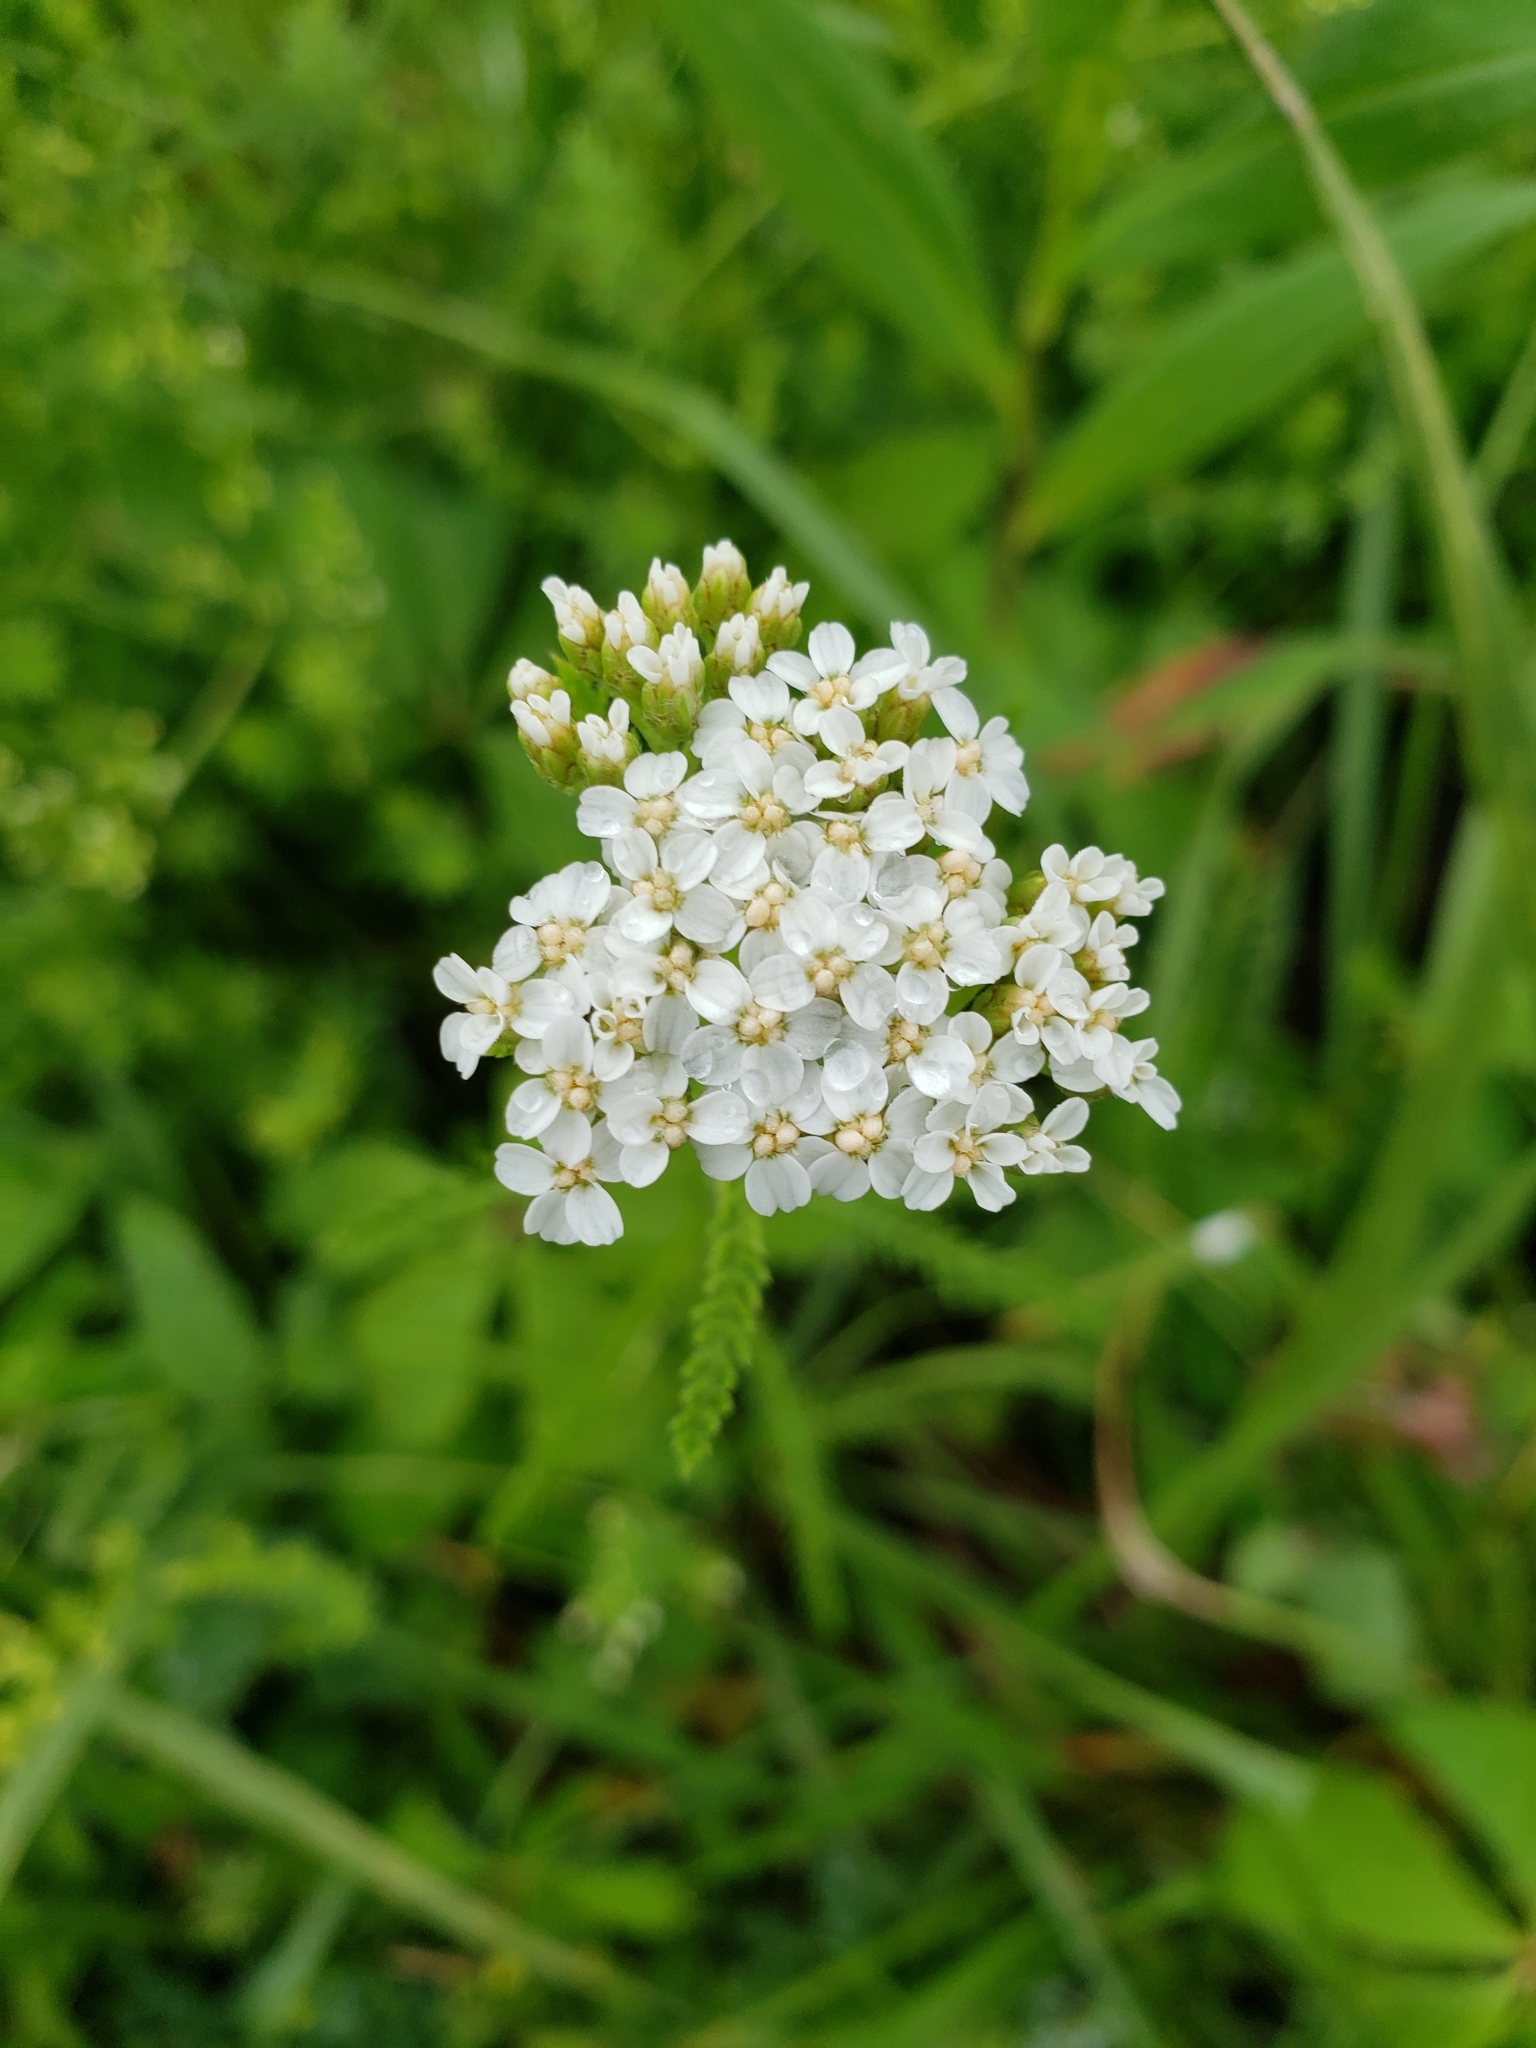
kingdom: Plantae
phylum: Tracheophyta
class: Magnoliopsida
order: Asterales
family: Asteraceae
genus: Achillea
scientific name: Achillea millefolium
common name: Yarrow
